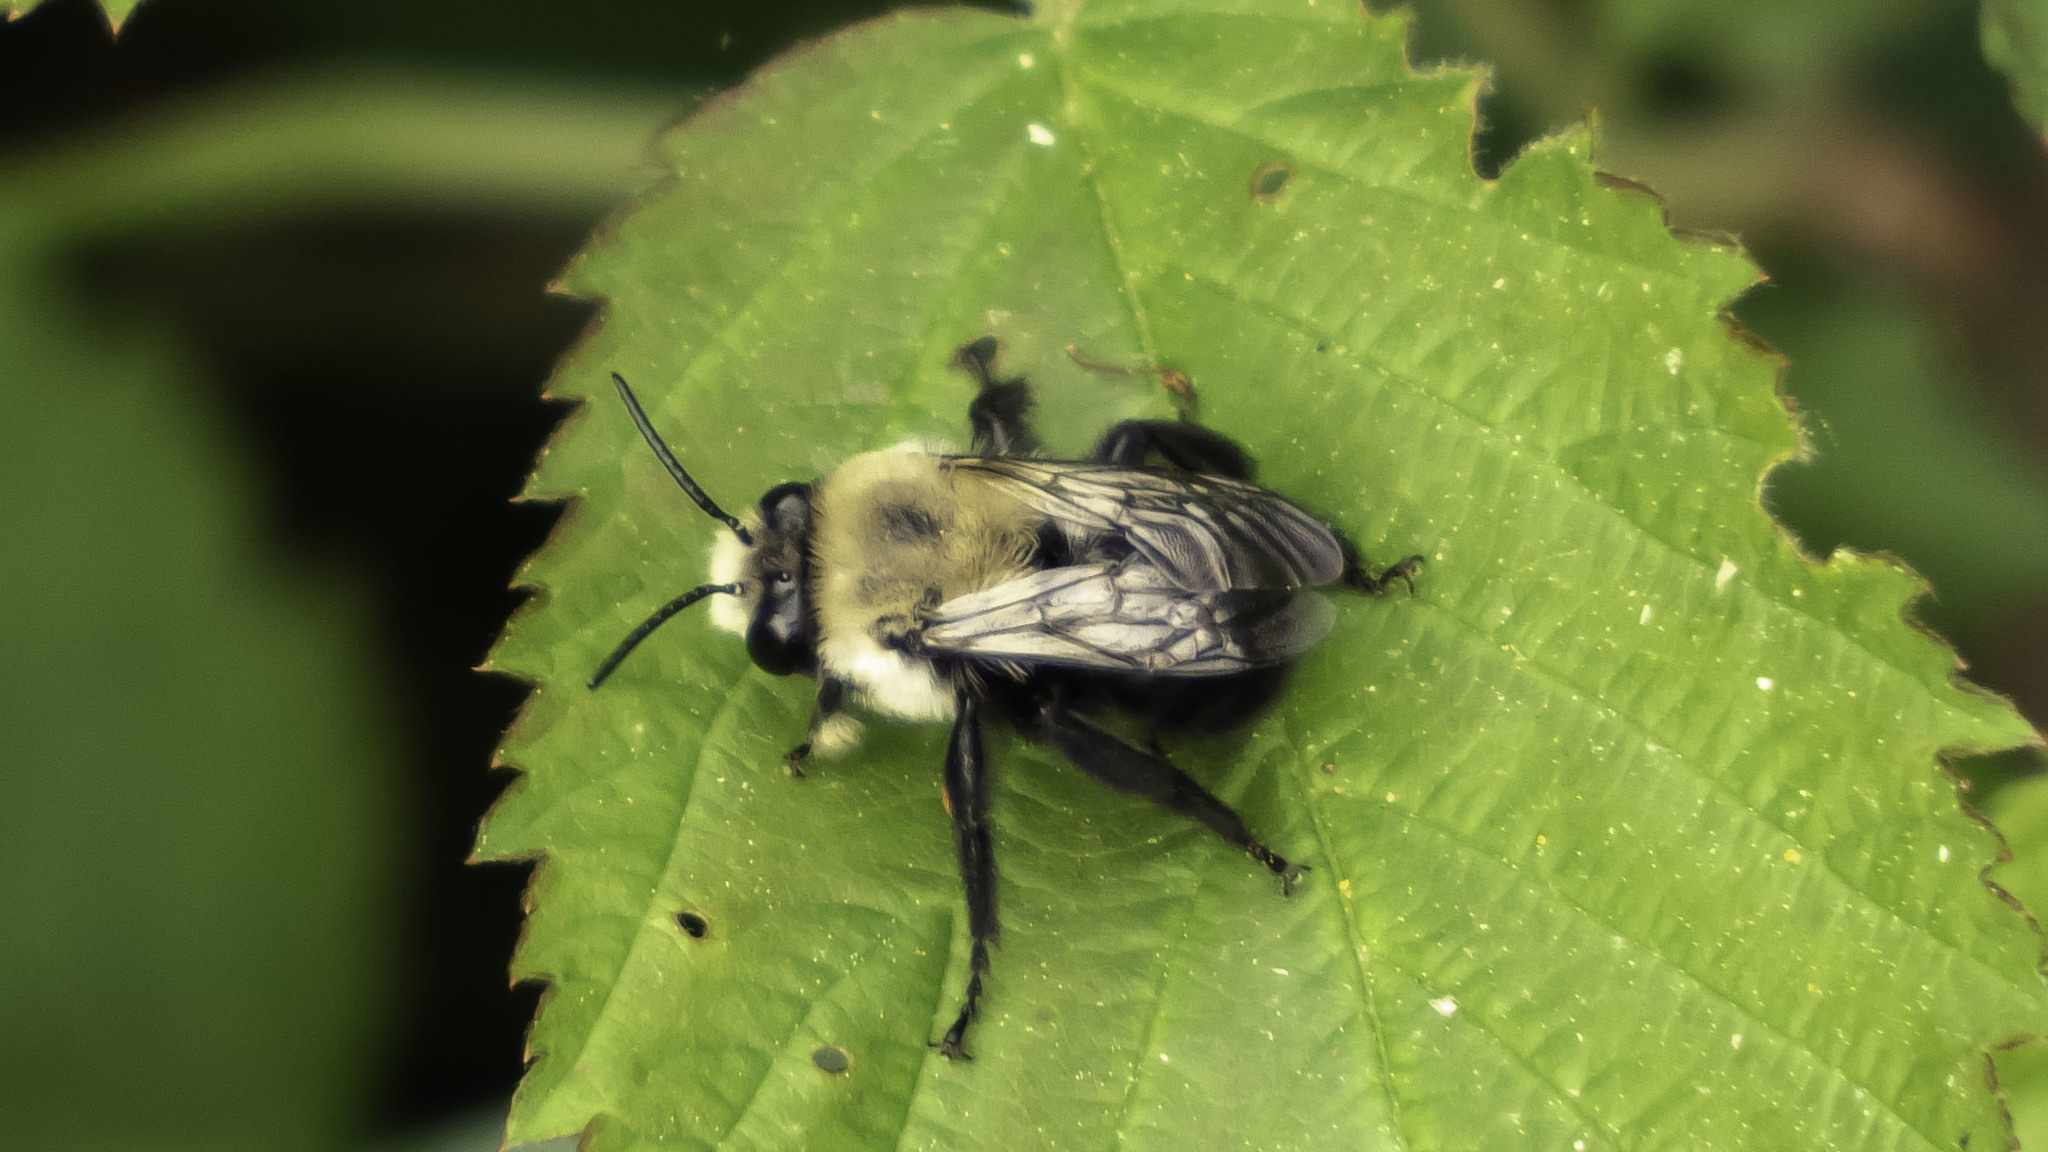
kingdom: Animalia
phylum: Arthropoda
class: Insecta
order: Hymenoptera
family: Apidae
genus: Anthophora
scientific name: Anthophora abrupta
